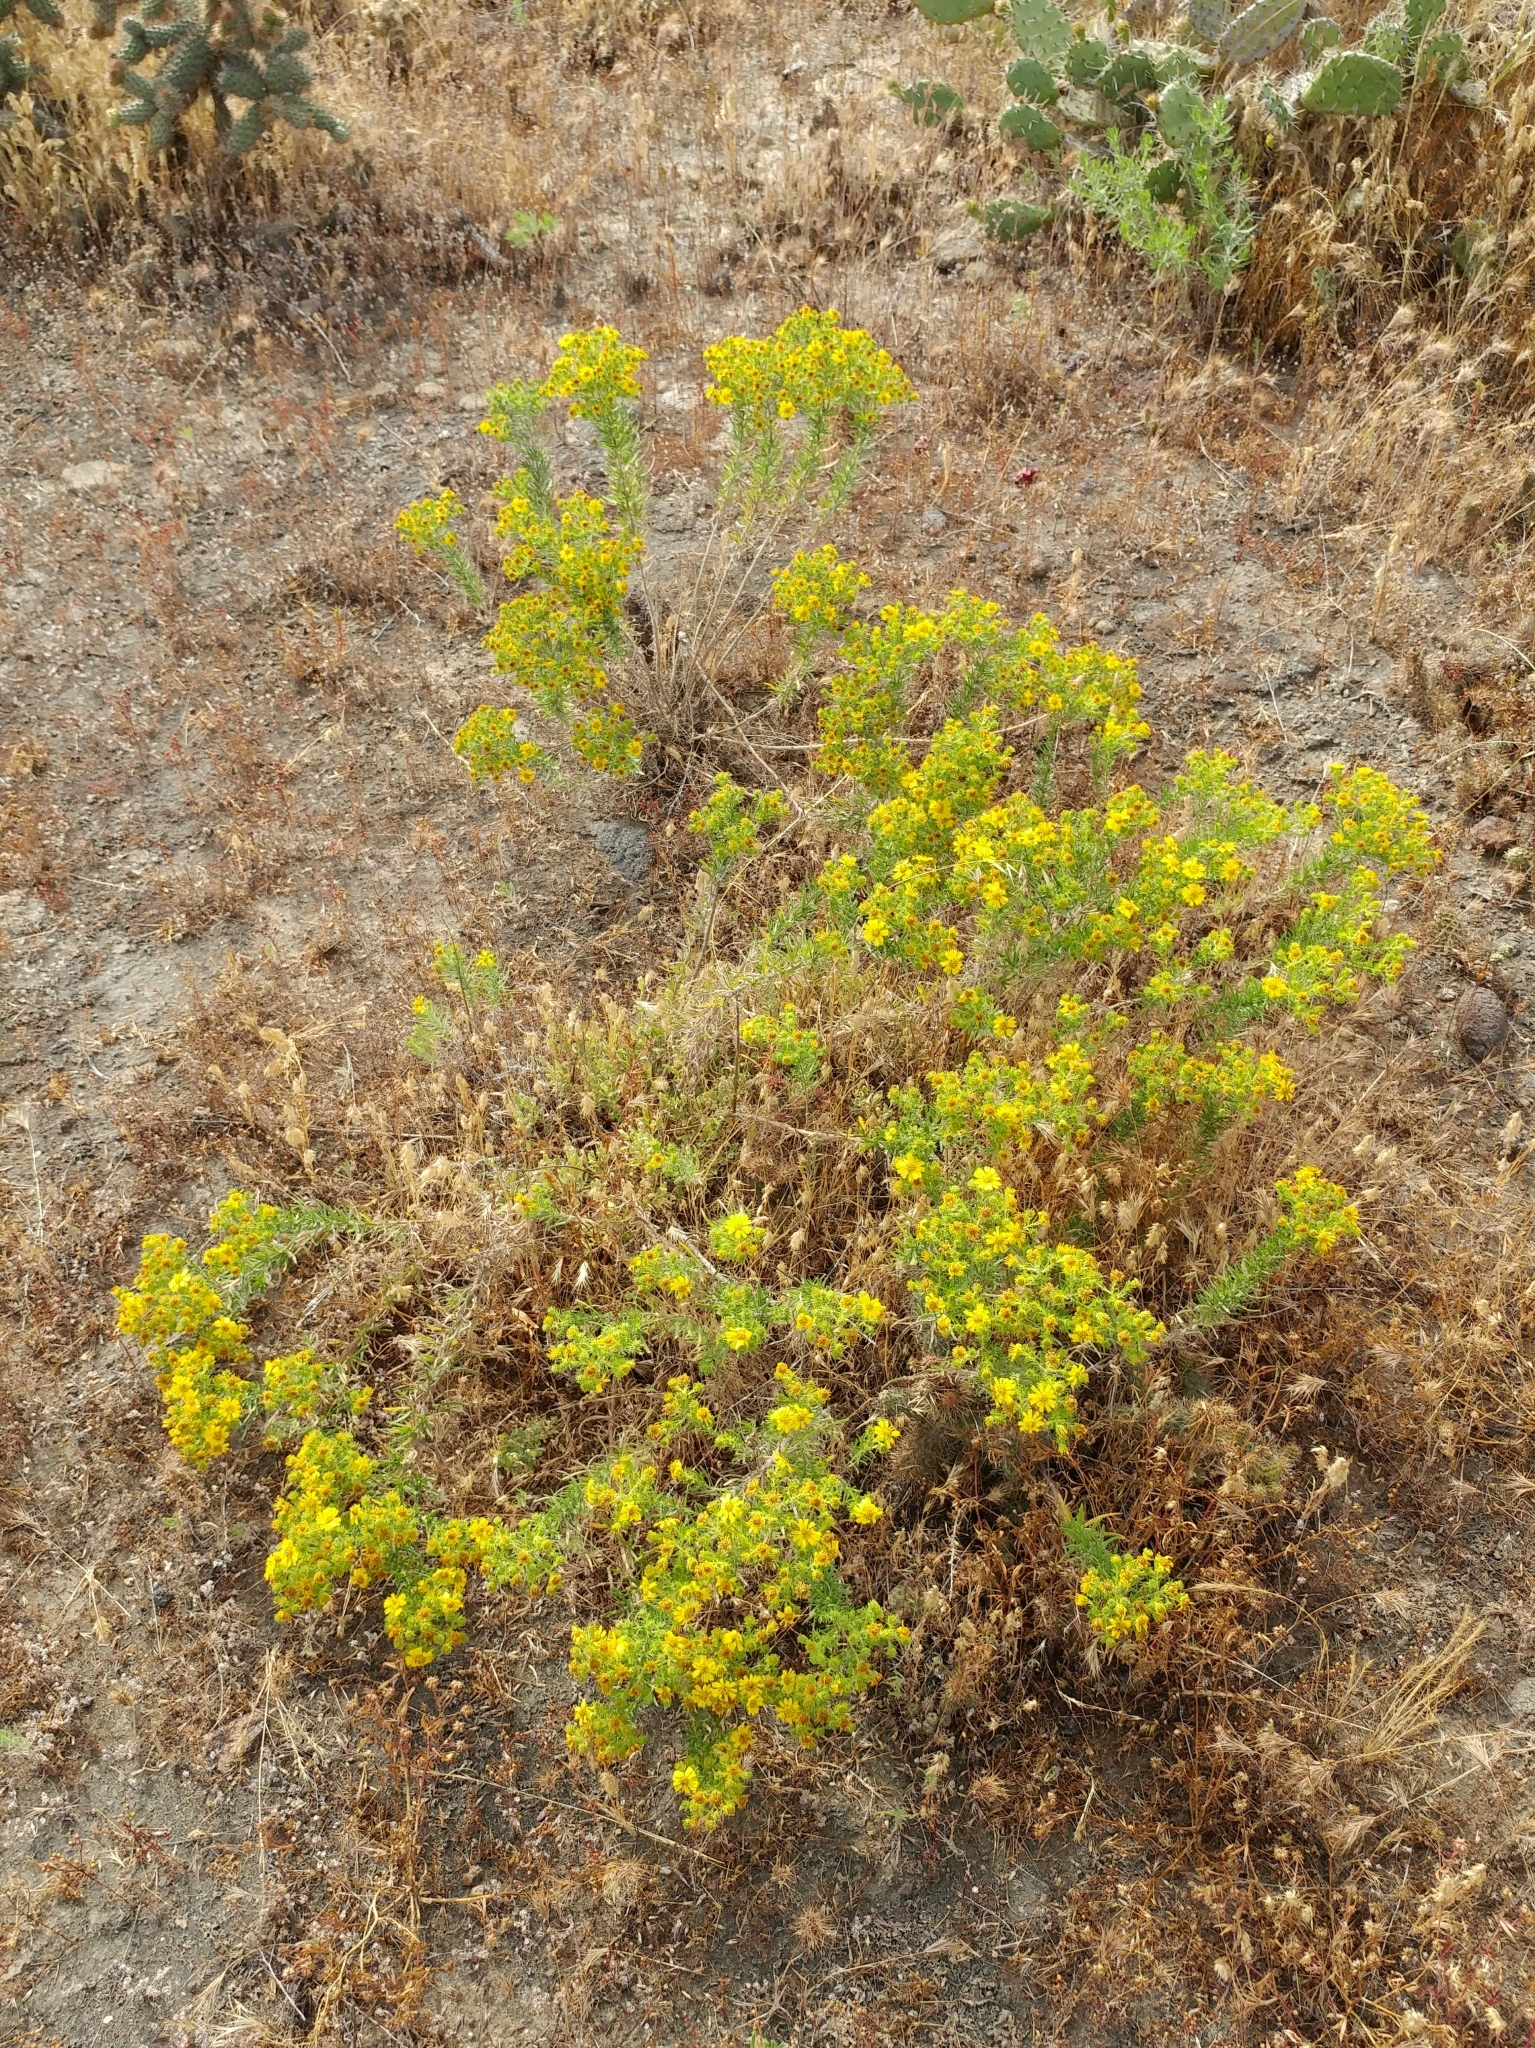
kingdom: Plantae
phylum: Tracheophyta
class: Magnoliopsida
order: Asterales
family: Asteraceae
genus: Deinandra
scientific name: Deinandra clementina
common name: Island tarplant
